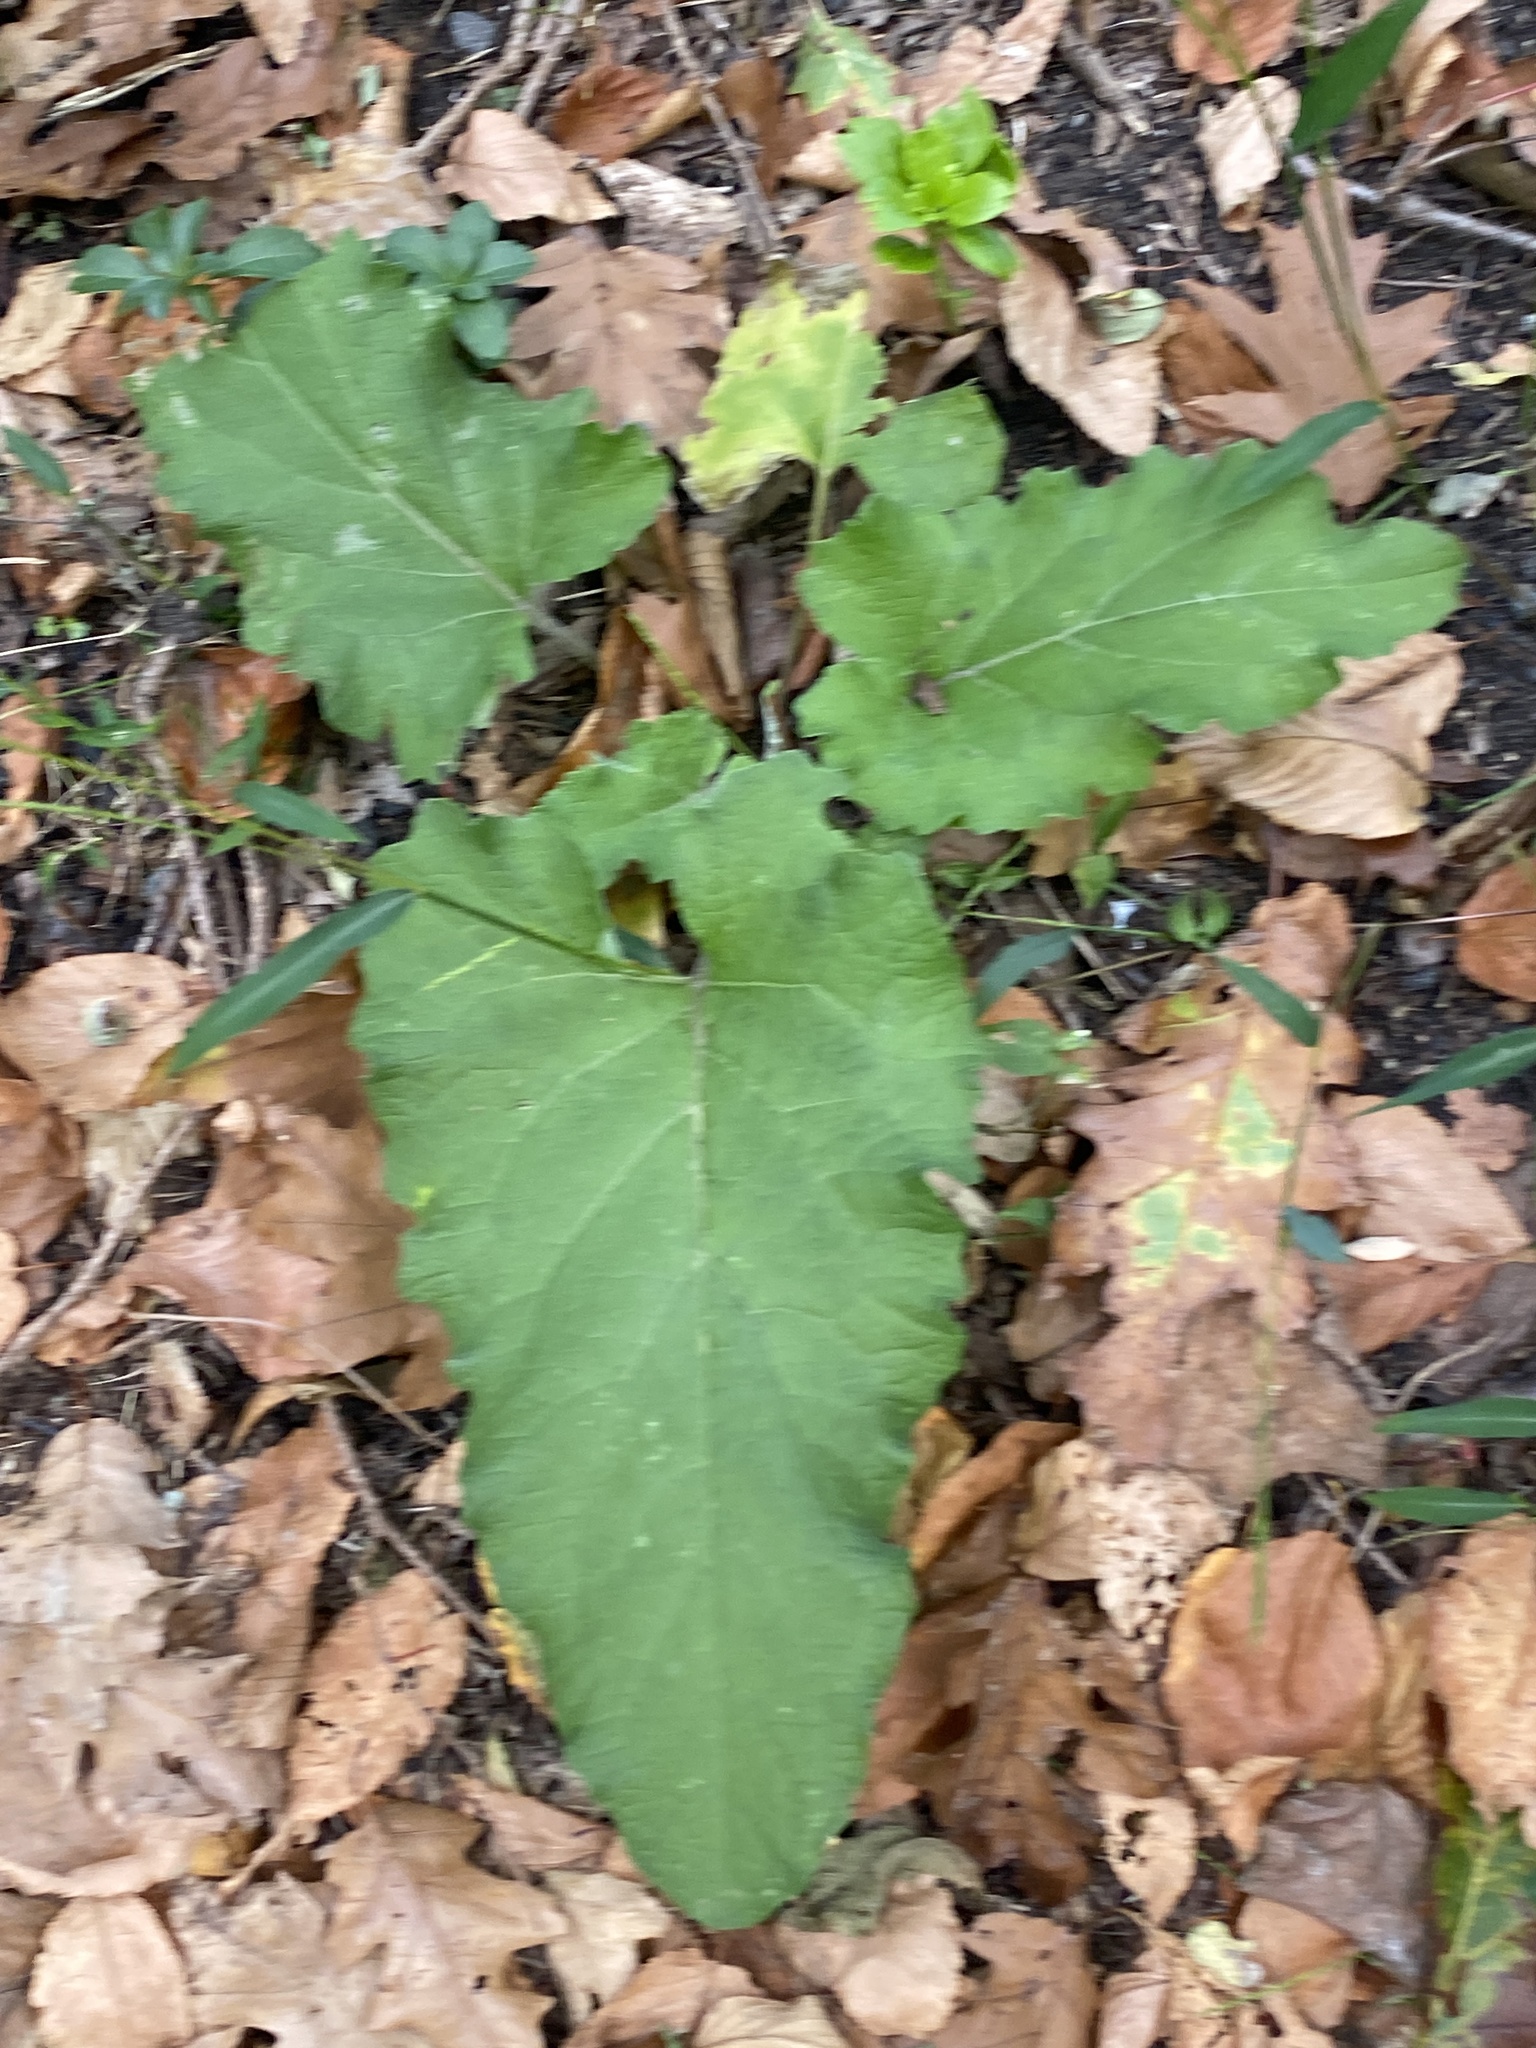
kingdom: Plantae
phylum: Tracheophyta
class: Magnoliopsida
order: Asterales
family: Asteraceae
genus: Arctium
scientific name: Arctium
